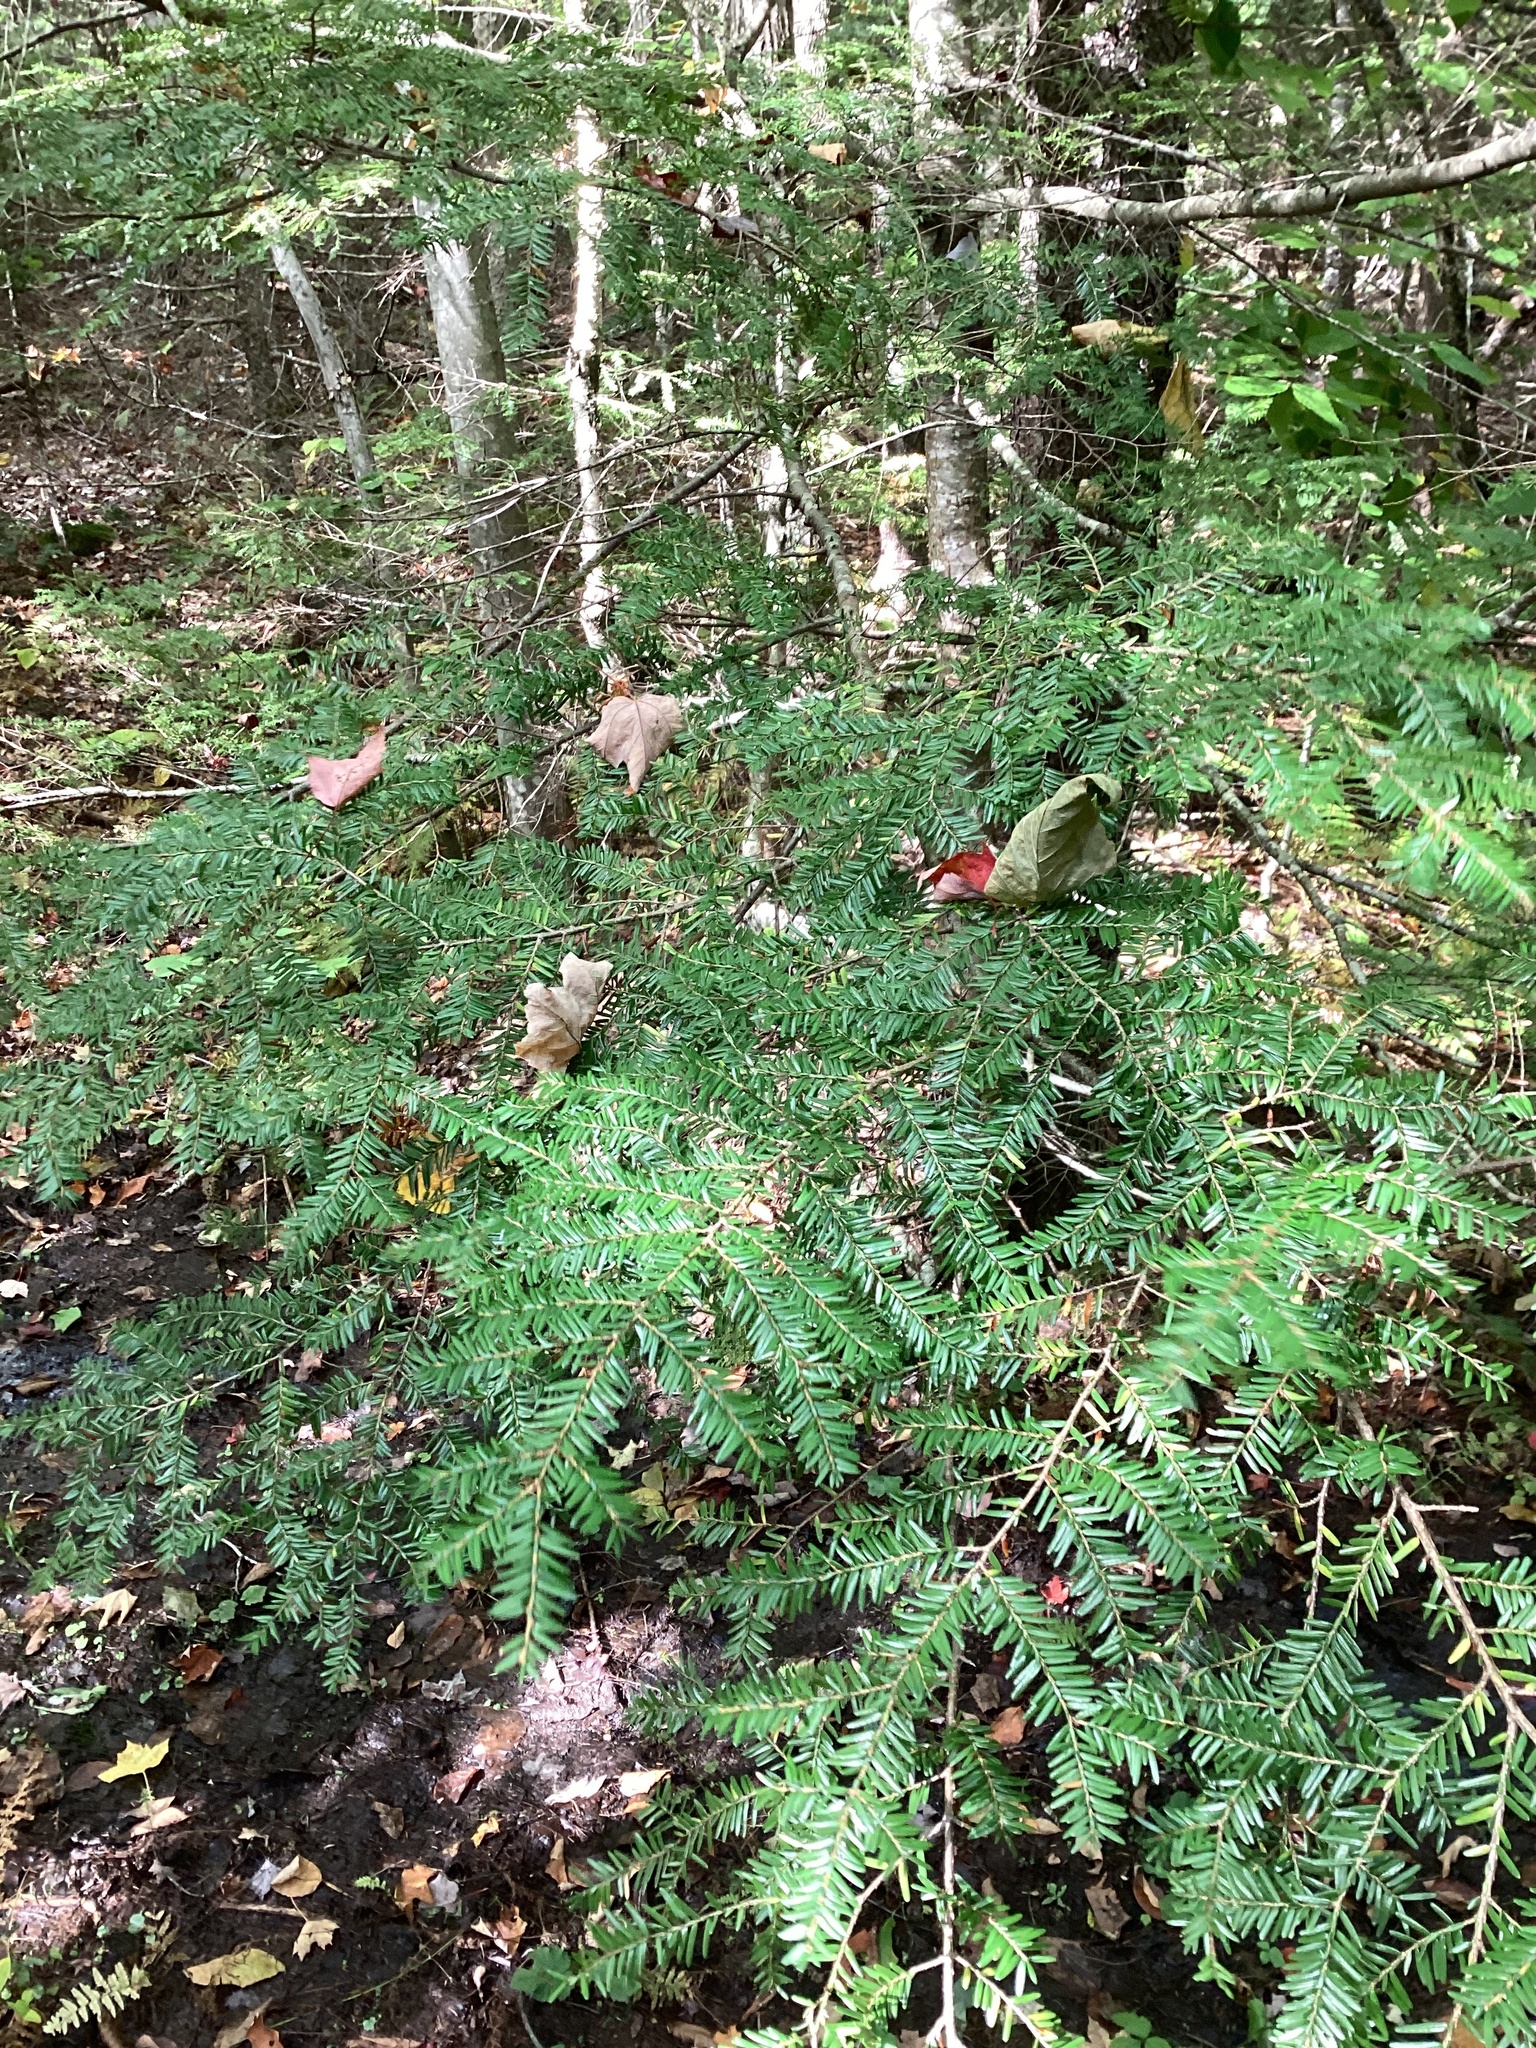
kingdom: Plantae
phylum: Tracheophyta
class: Pinopsida
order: Pinales
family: Pinaceae
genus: Tsuga
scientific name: Tsuga canadensis
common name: Eastern hemlock
